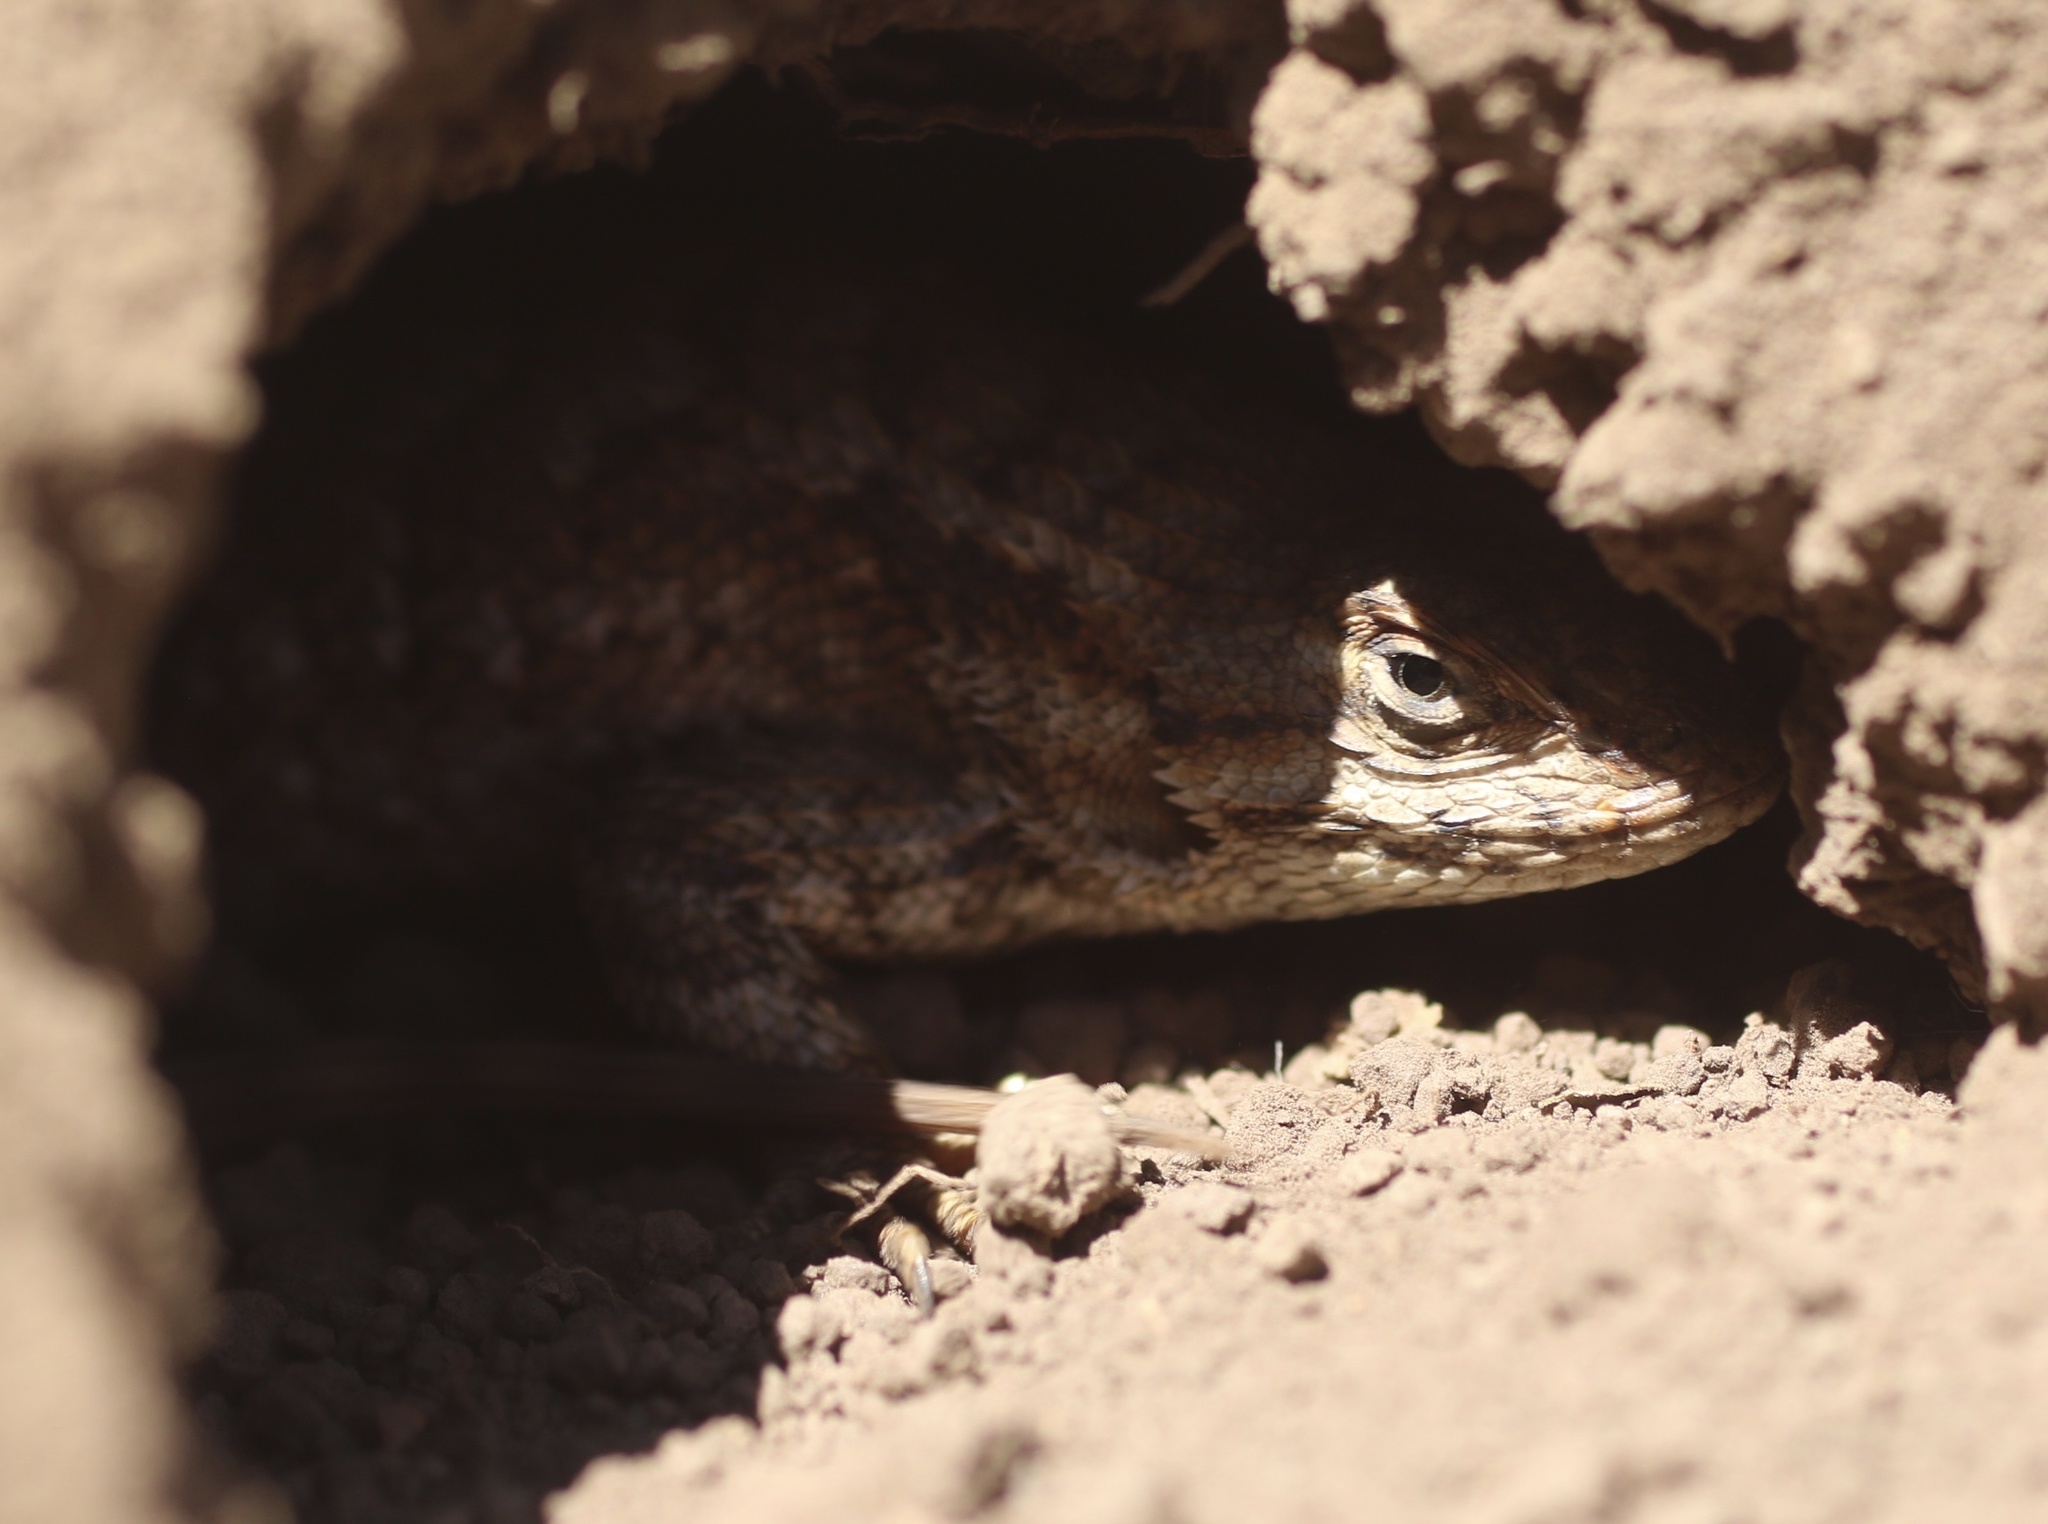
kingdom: Animalia
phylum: Chordata
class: Squamata
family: Phrynosomatidae
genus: Sceloporus
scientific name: Sceloporus occidentalis
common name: Western fence lizard
